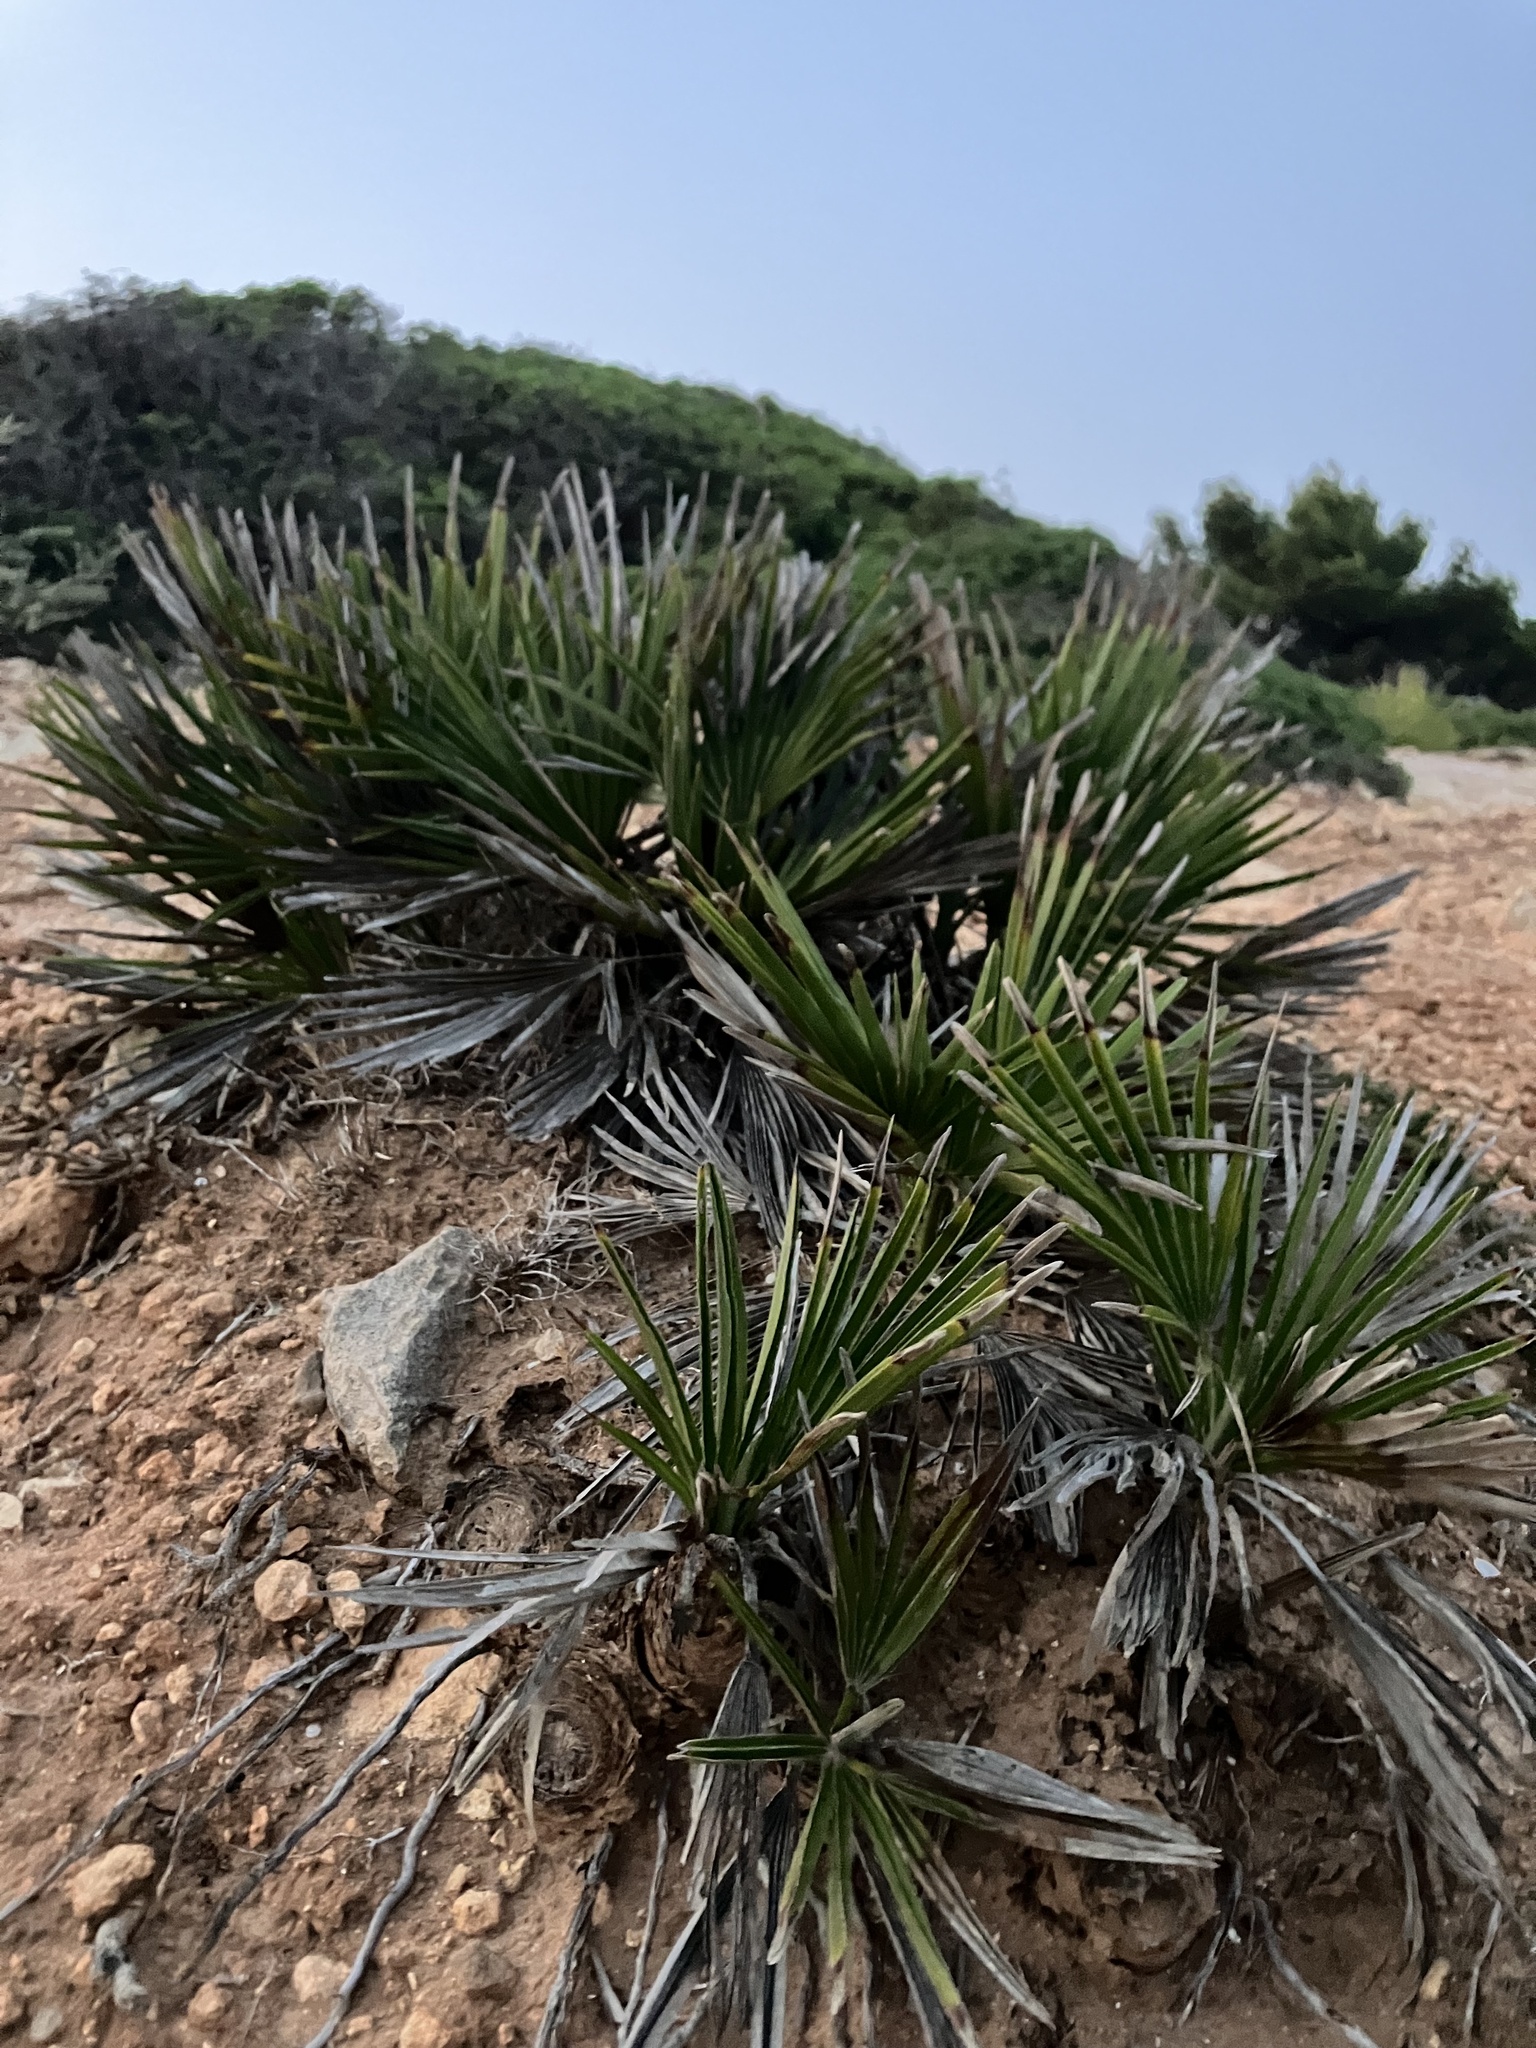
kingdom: Plantae
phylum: Tracheophyta
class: Liliopsida
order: Arecales
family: Arecaceae
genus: Chamaerops
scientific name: Chamaerops humilis
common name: Dwarf fan palm
